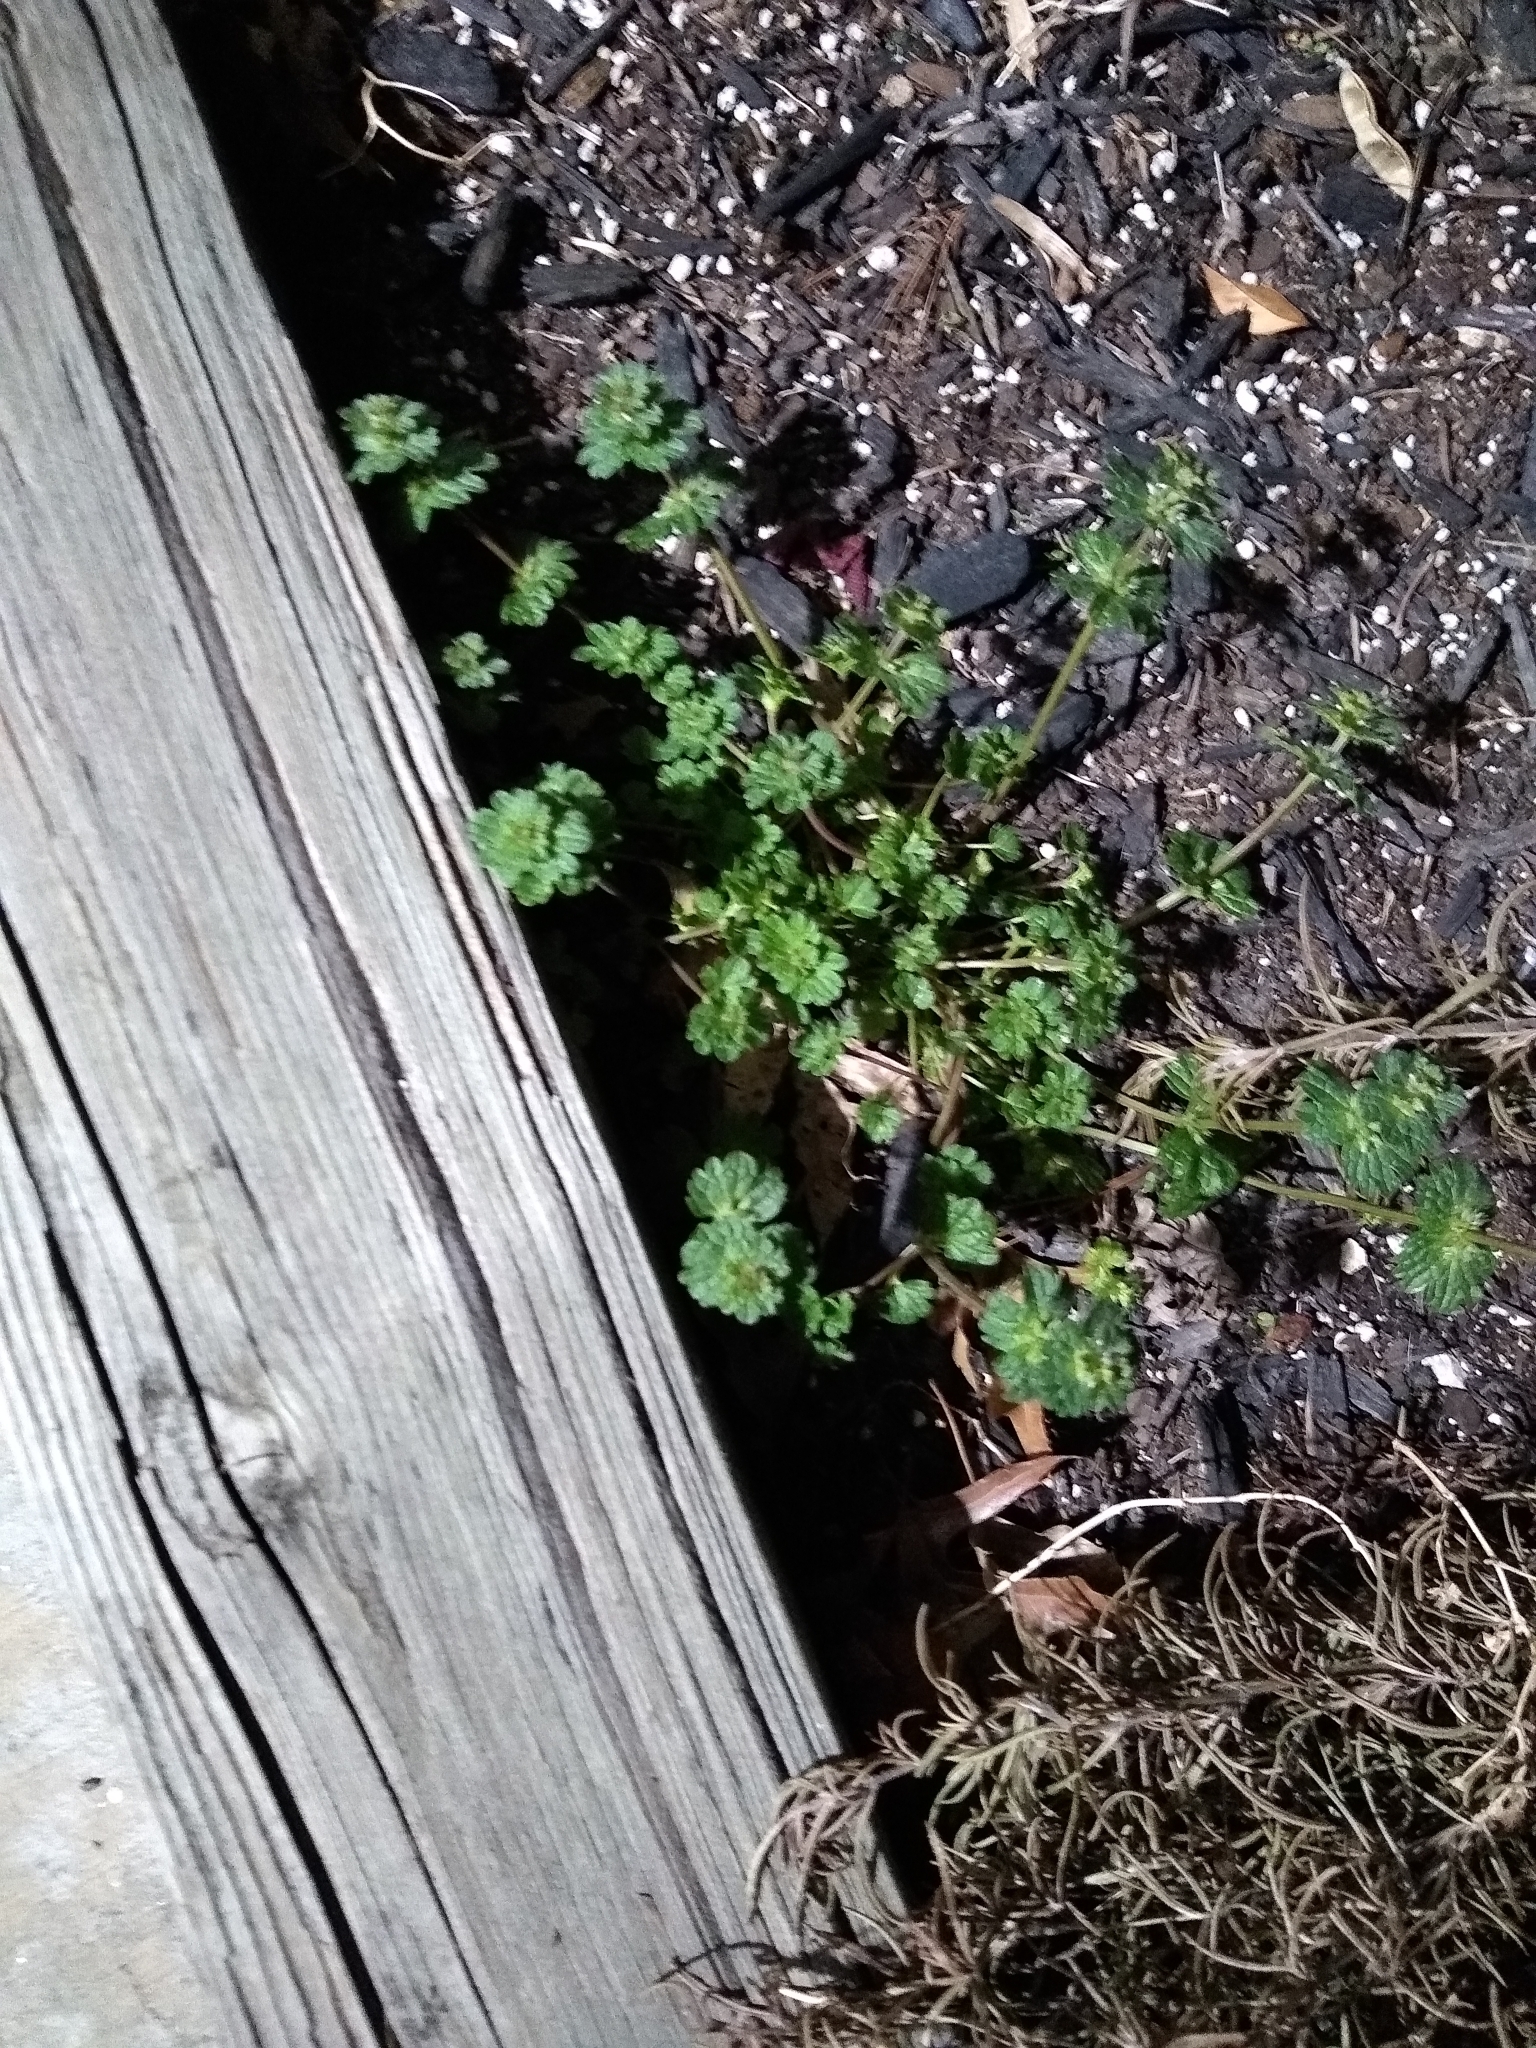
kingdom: Plantae
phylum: Tracheophyta
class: Magnoliopsida
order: Lamiales
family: Lamiaceae
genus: Lamium
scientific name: Lamium amplexicaule
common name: Henbit dead-nettle
